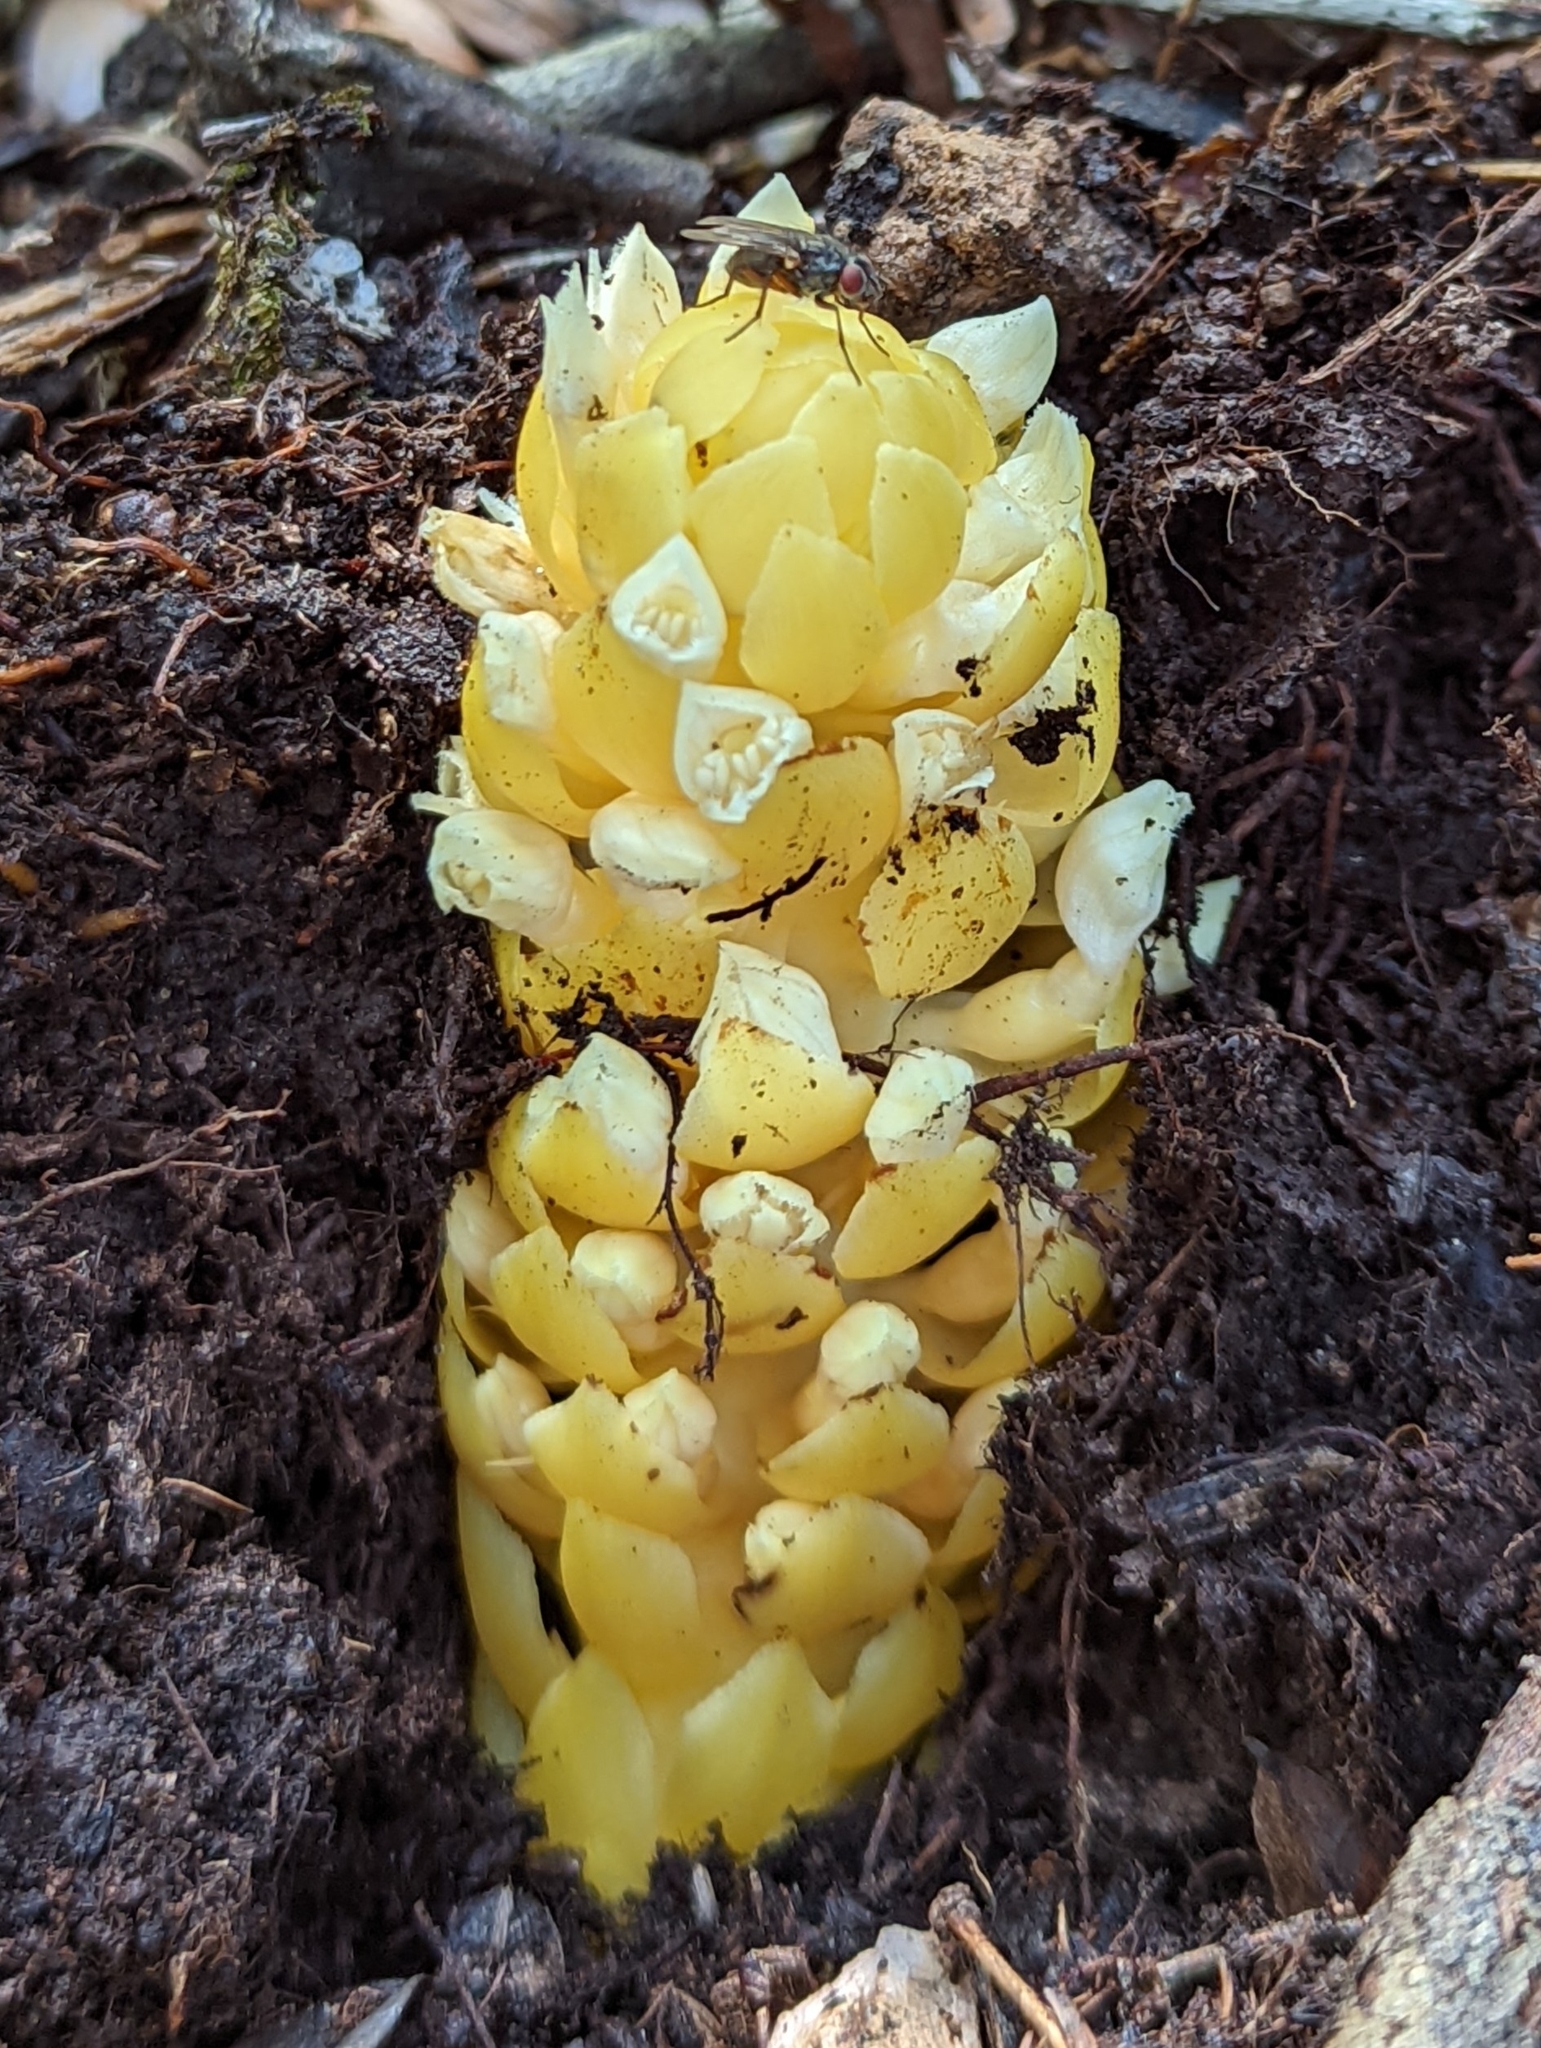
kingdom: Plantae
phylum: Tracheophyta
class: Magnoliopsida
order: Lamiales
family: Orobanchaceae
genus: Kopsiopsis
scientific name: Kopsiopsis hookeri
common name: Hooker's groundcone
